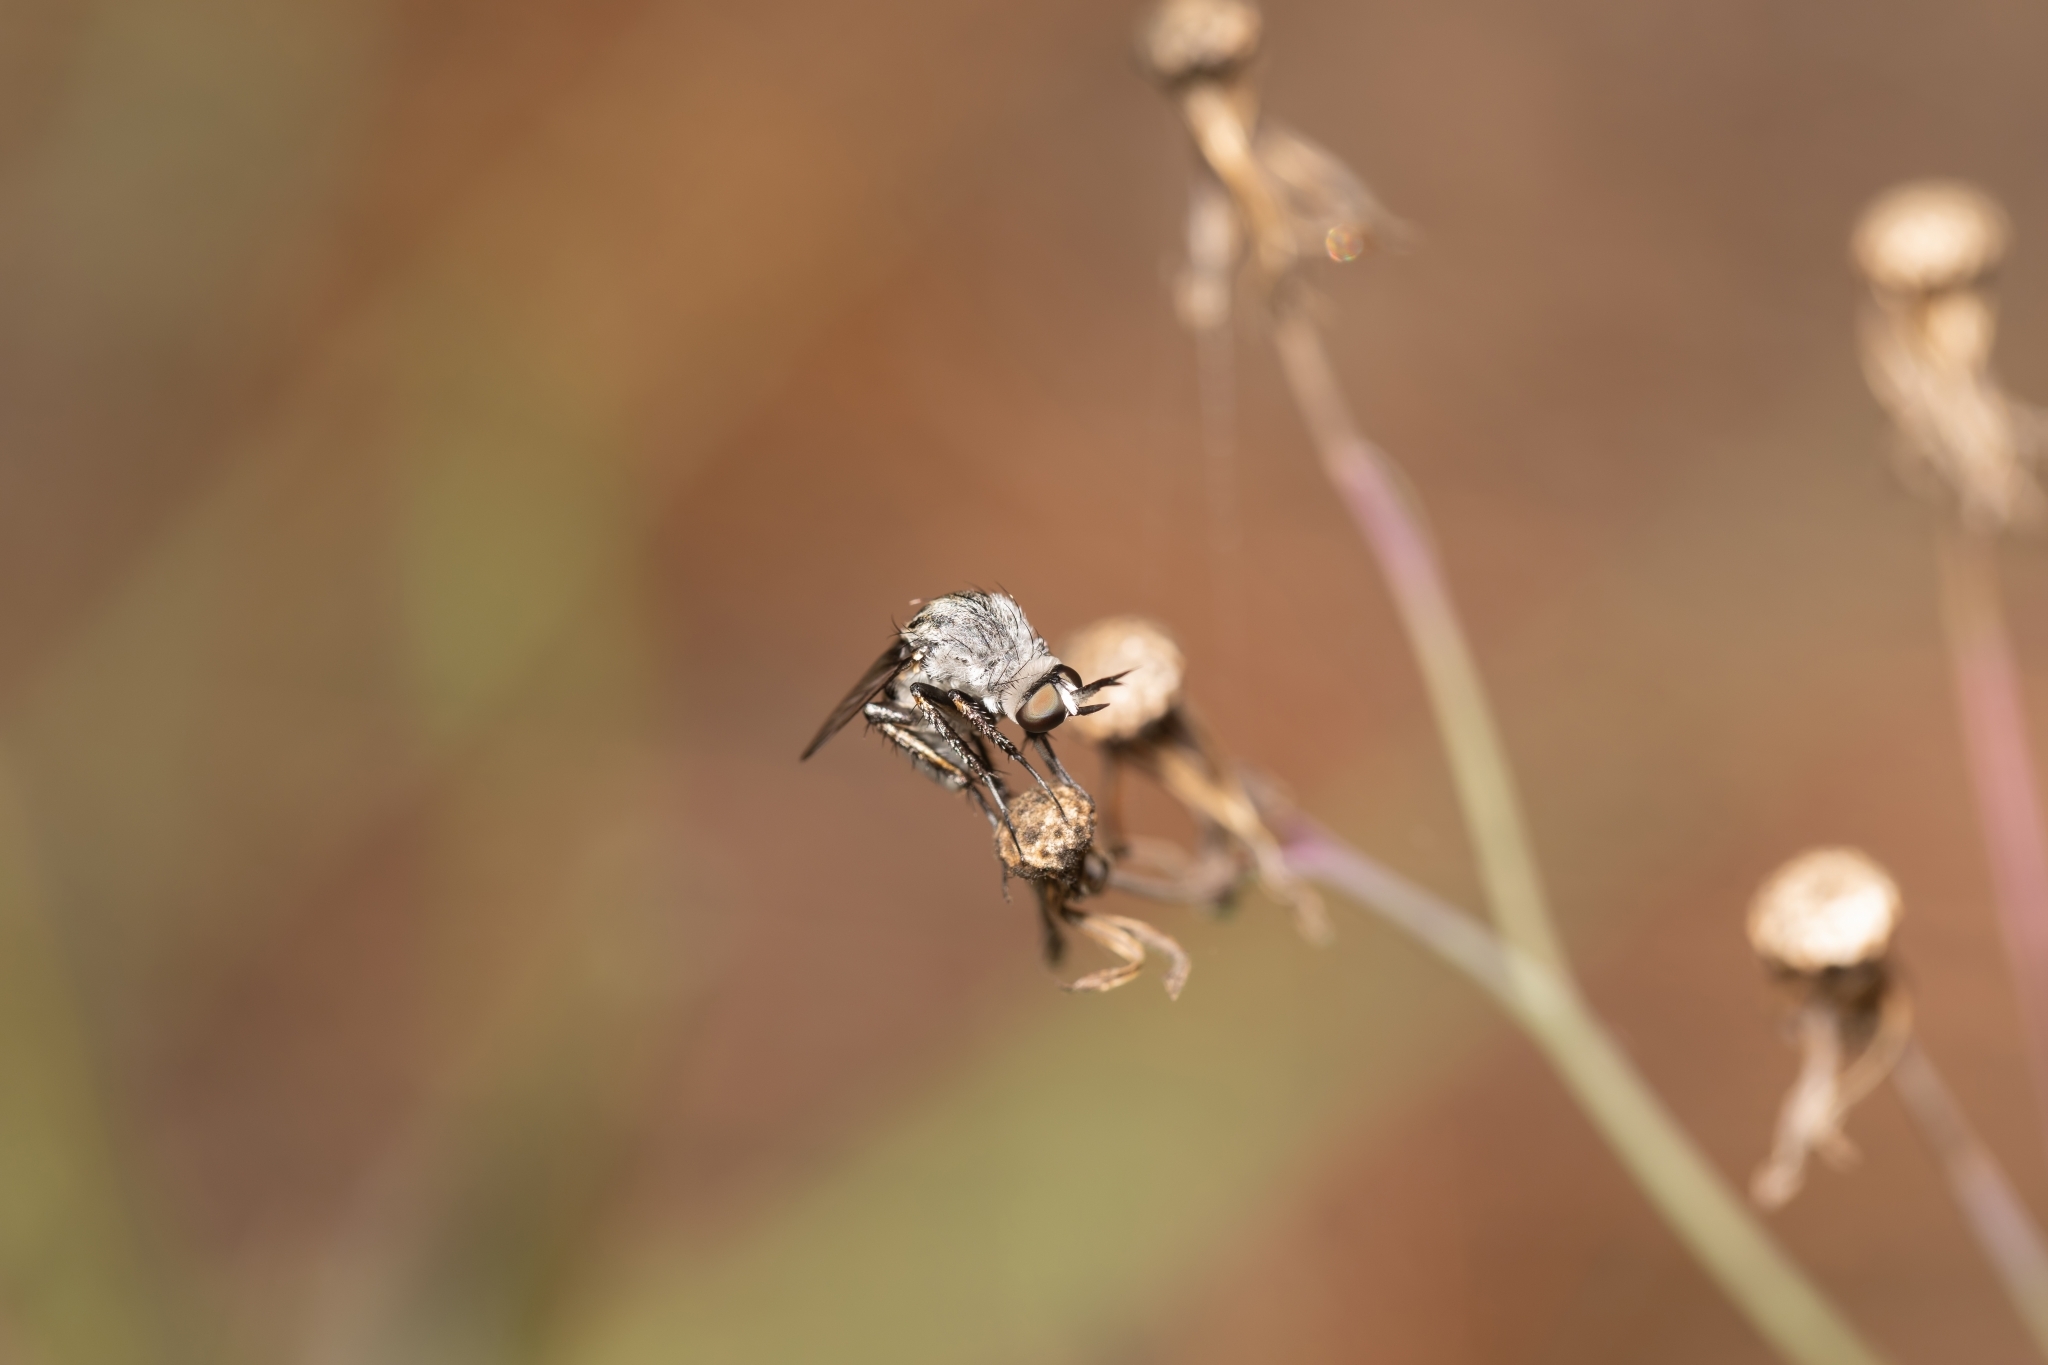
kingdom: Animalia
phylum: Arthropoda
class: Insecta
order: Diptera
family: Bombyliidae
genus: Toxophora
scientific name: Toxophora amphitea
